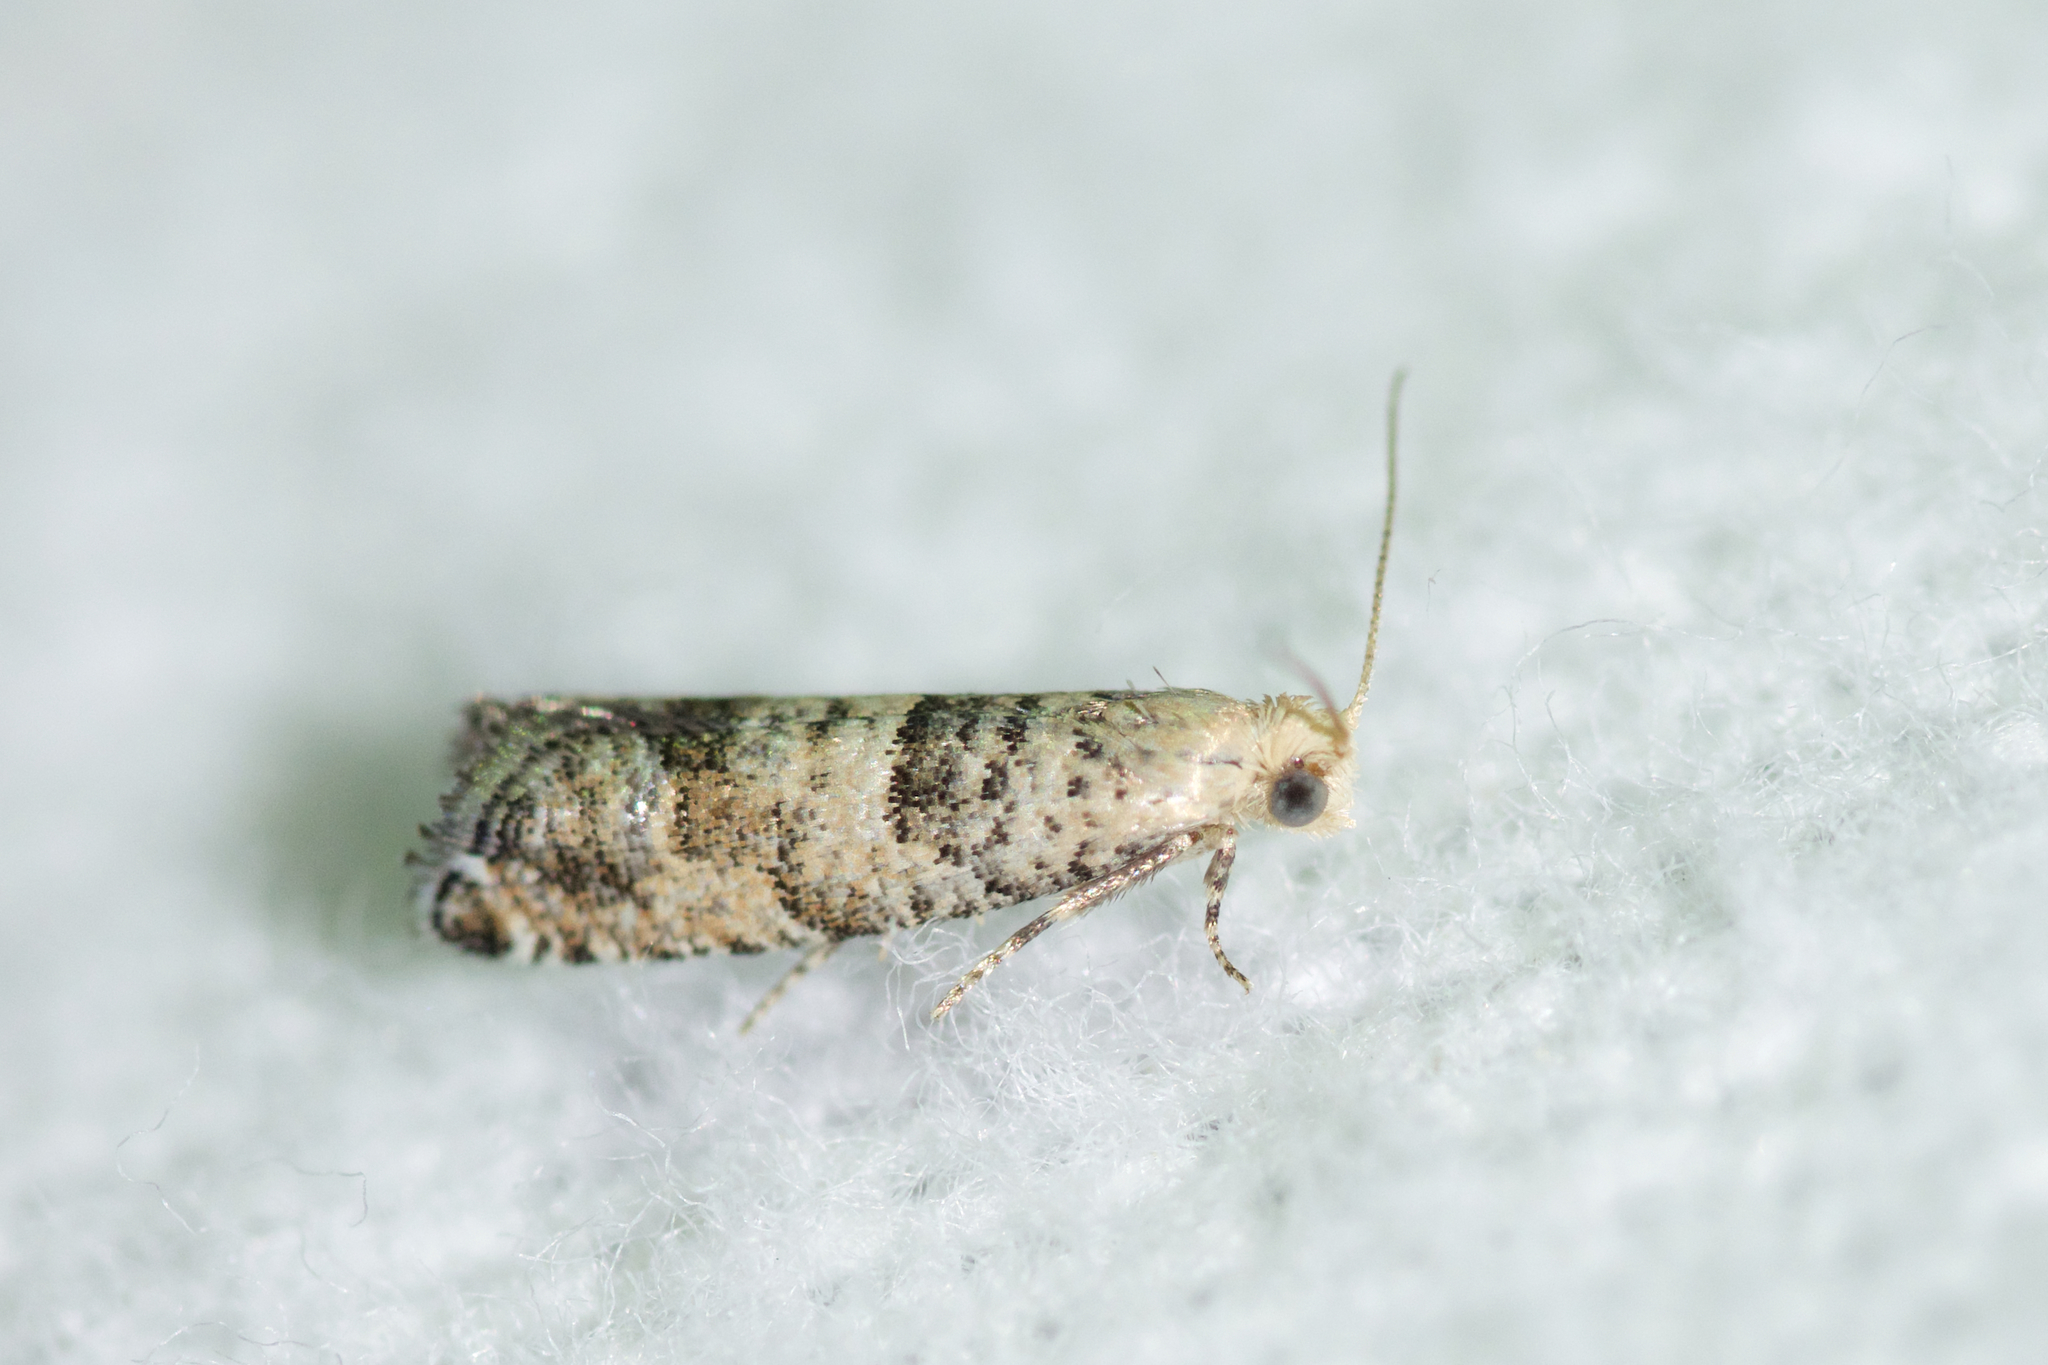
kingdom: Animalia
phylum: Arthropoda
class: Insecta
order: Lepidoptera
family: Tortricidae
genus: Epinotia
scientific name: Epinotia normanana
